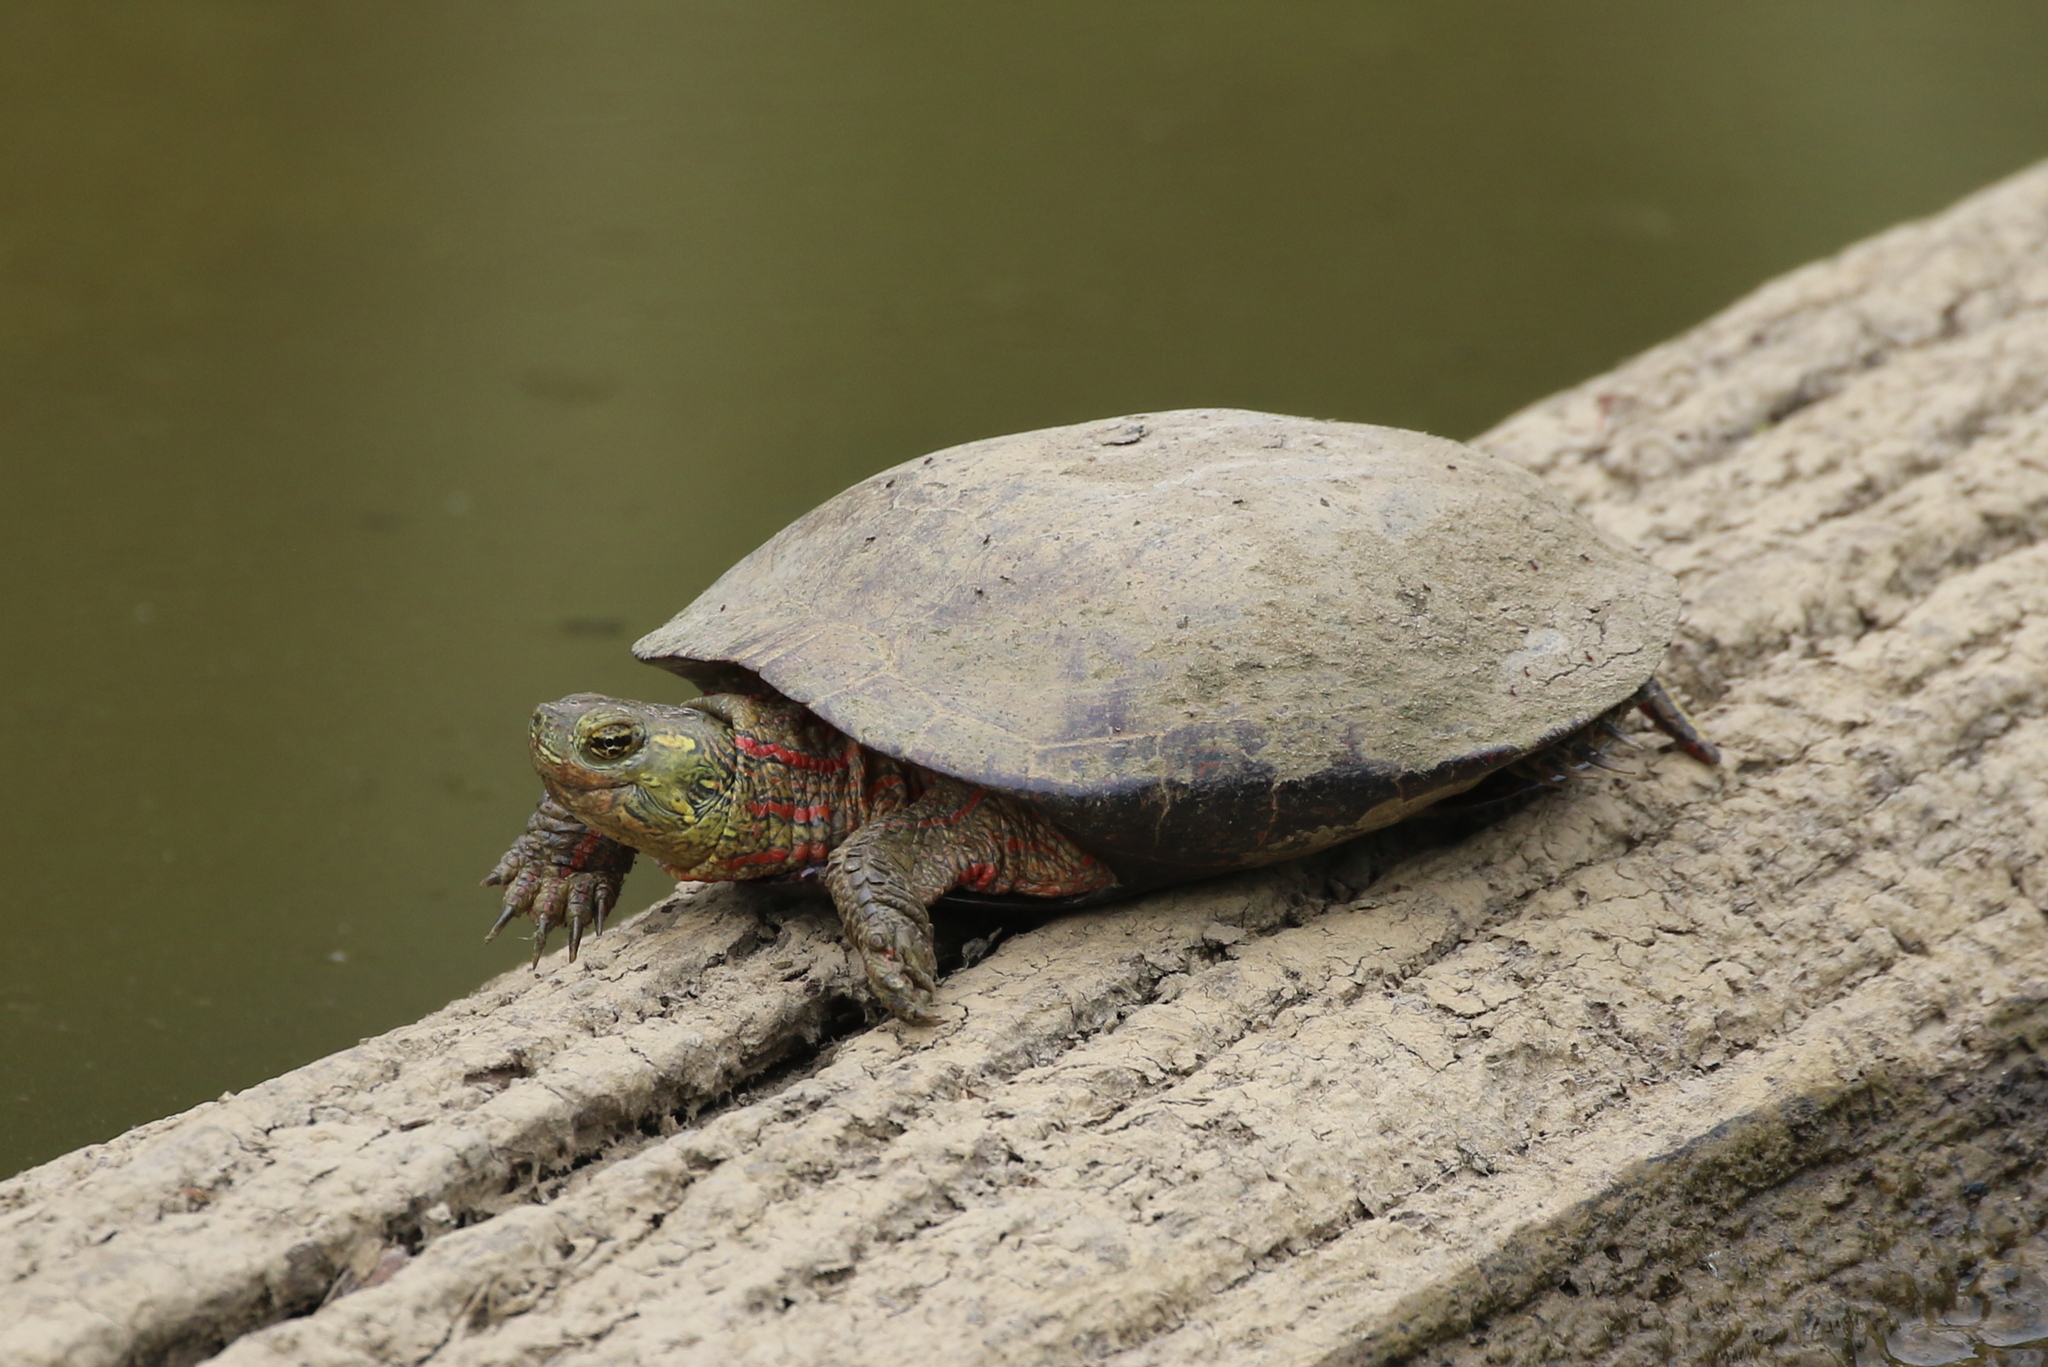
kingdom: Animalia
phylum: Chordata
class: Testudines
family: Emydidae
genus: Chrysemys
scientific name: Chrysemys picta
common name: Painted turtle
